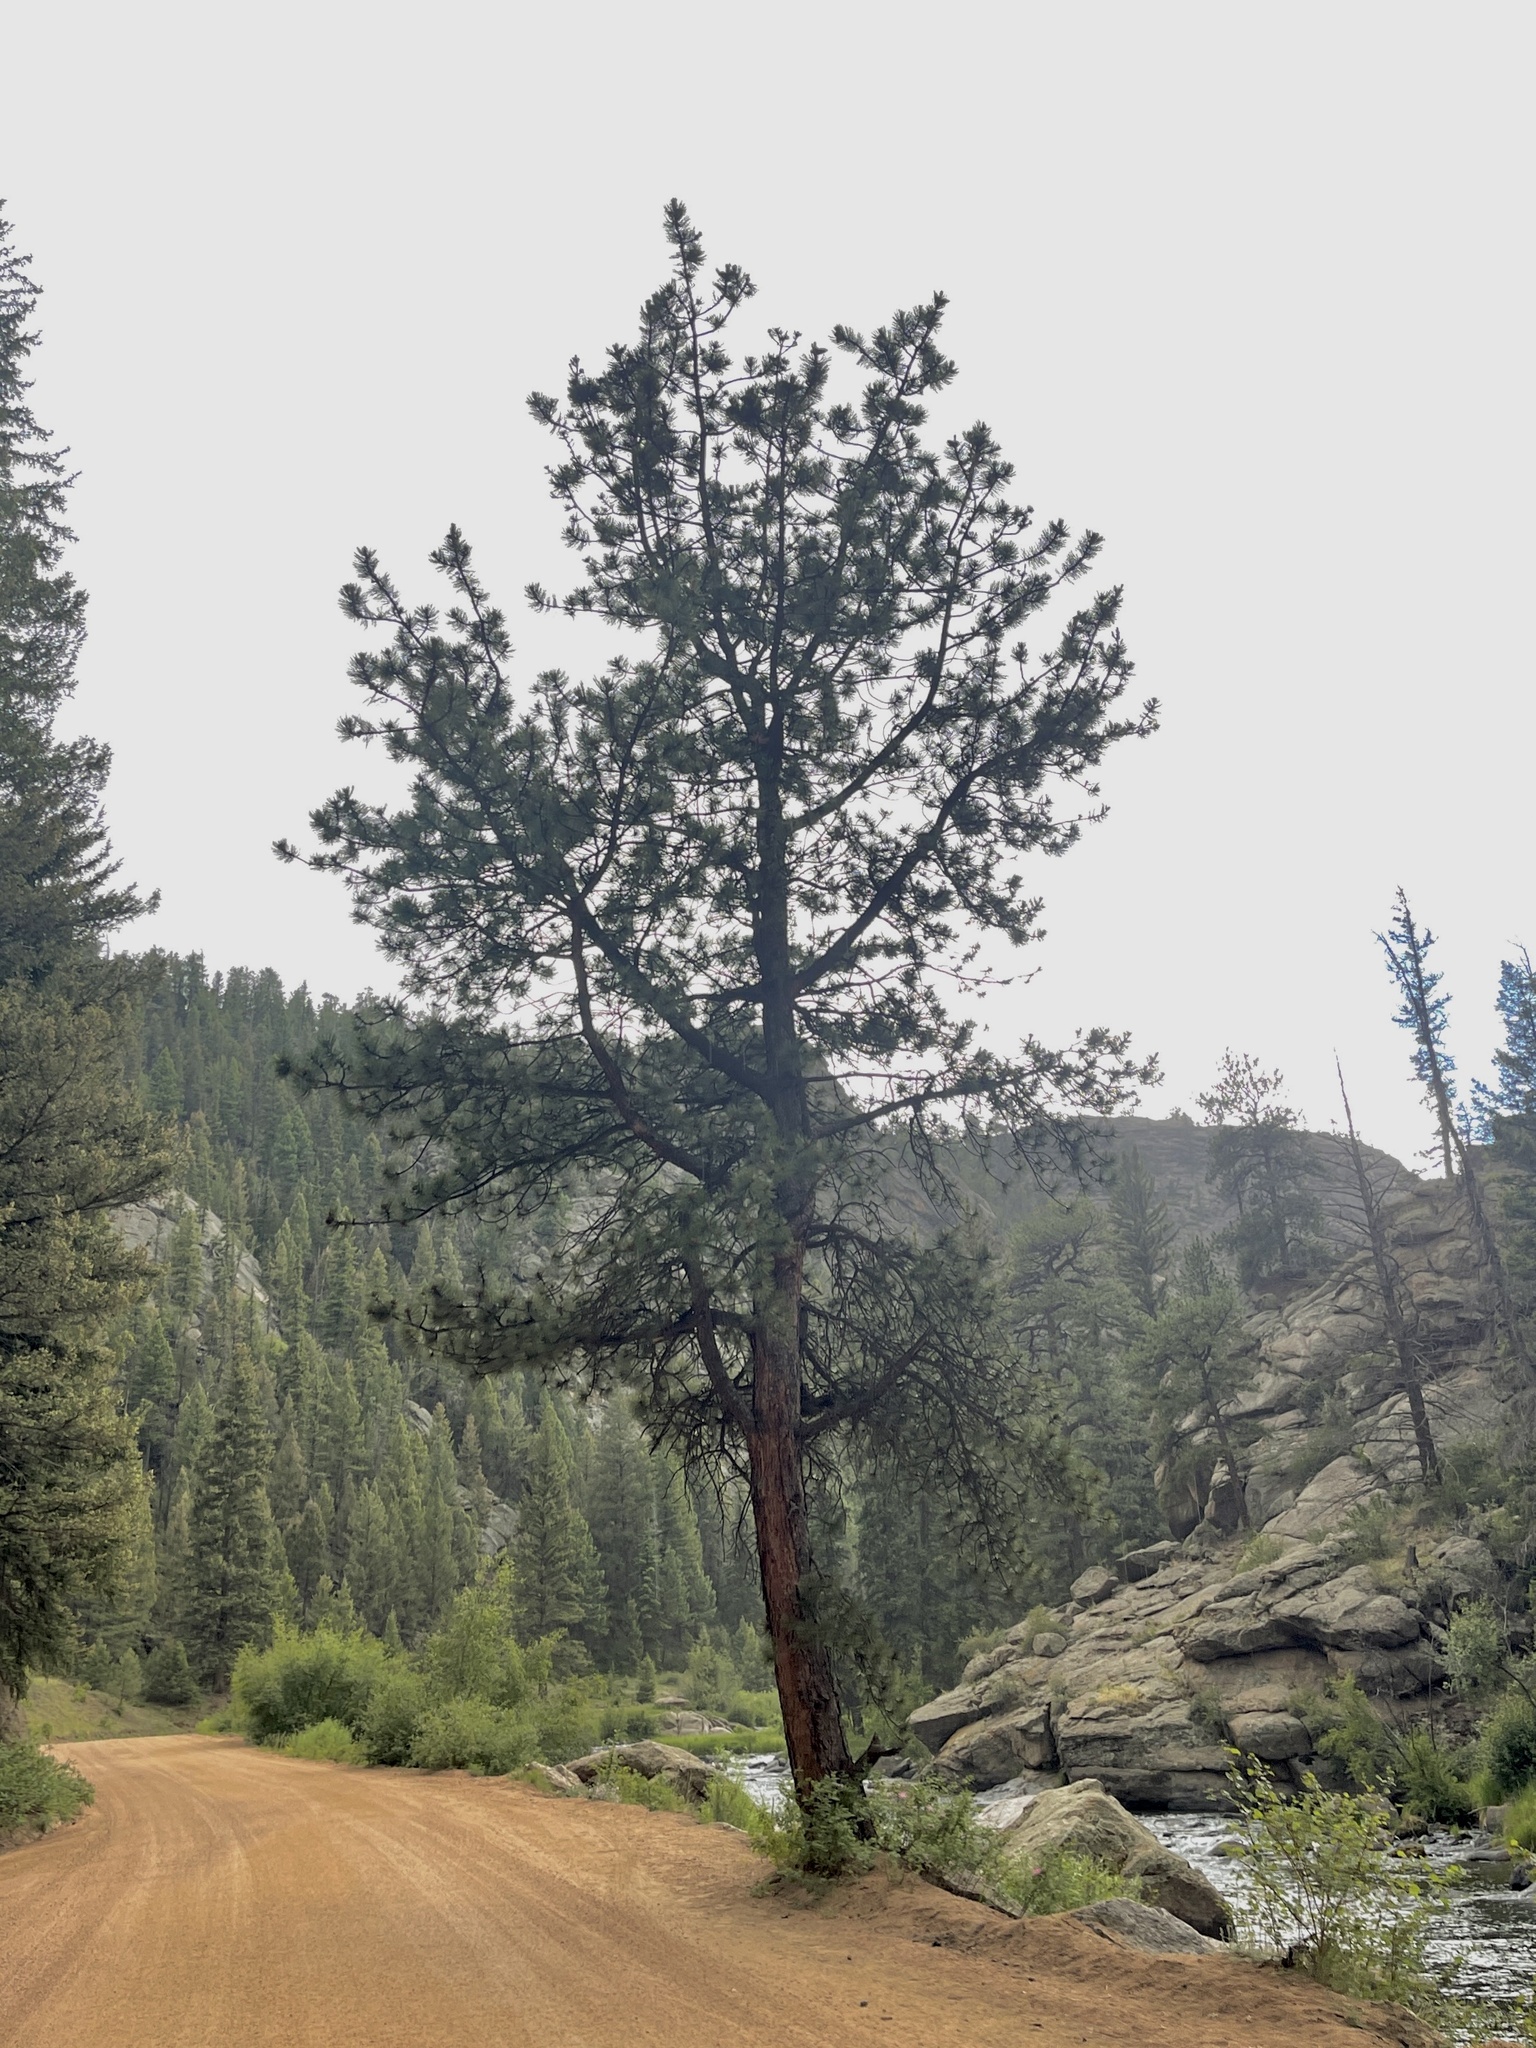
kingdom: Plantae
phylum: Tracheophyta
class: Pinopsida
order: Pinales
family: Pinaceae
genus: Pinus
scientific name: Pinus ponderosa
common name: Western yellow-pine
